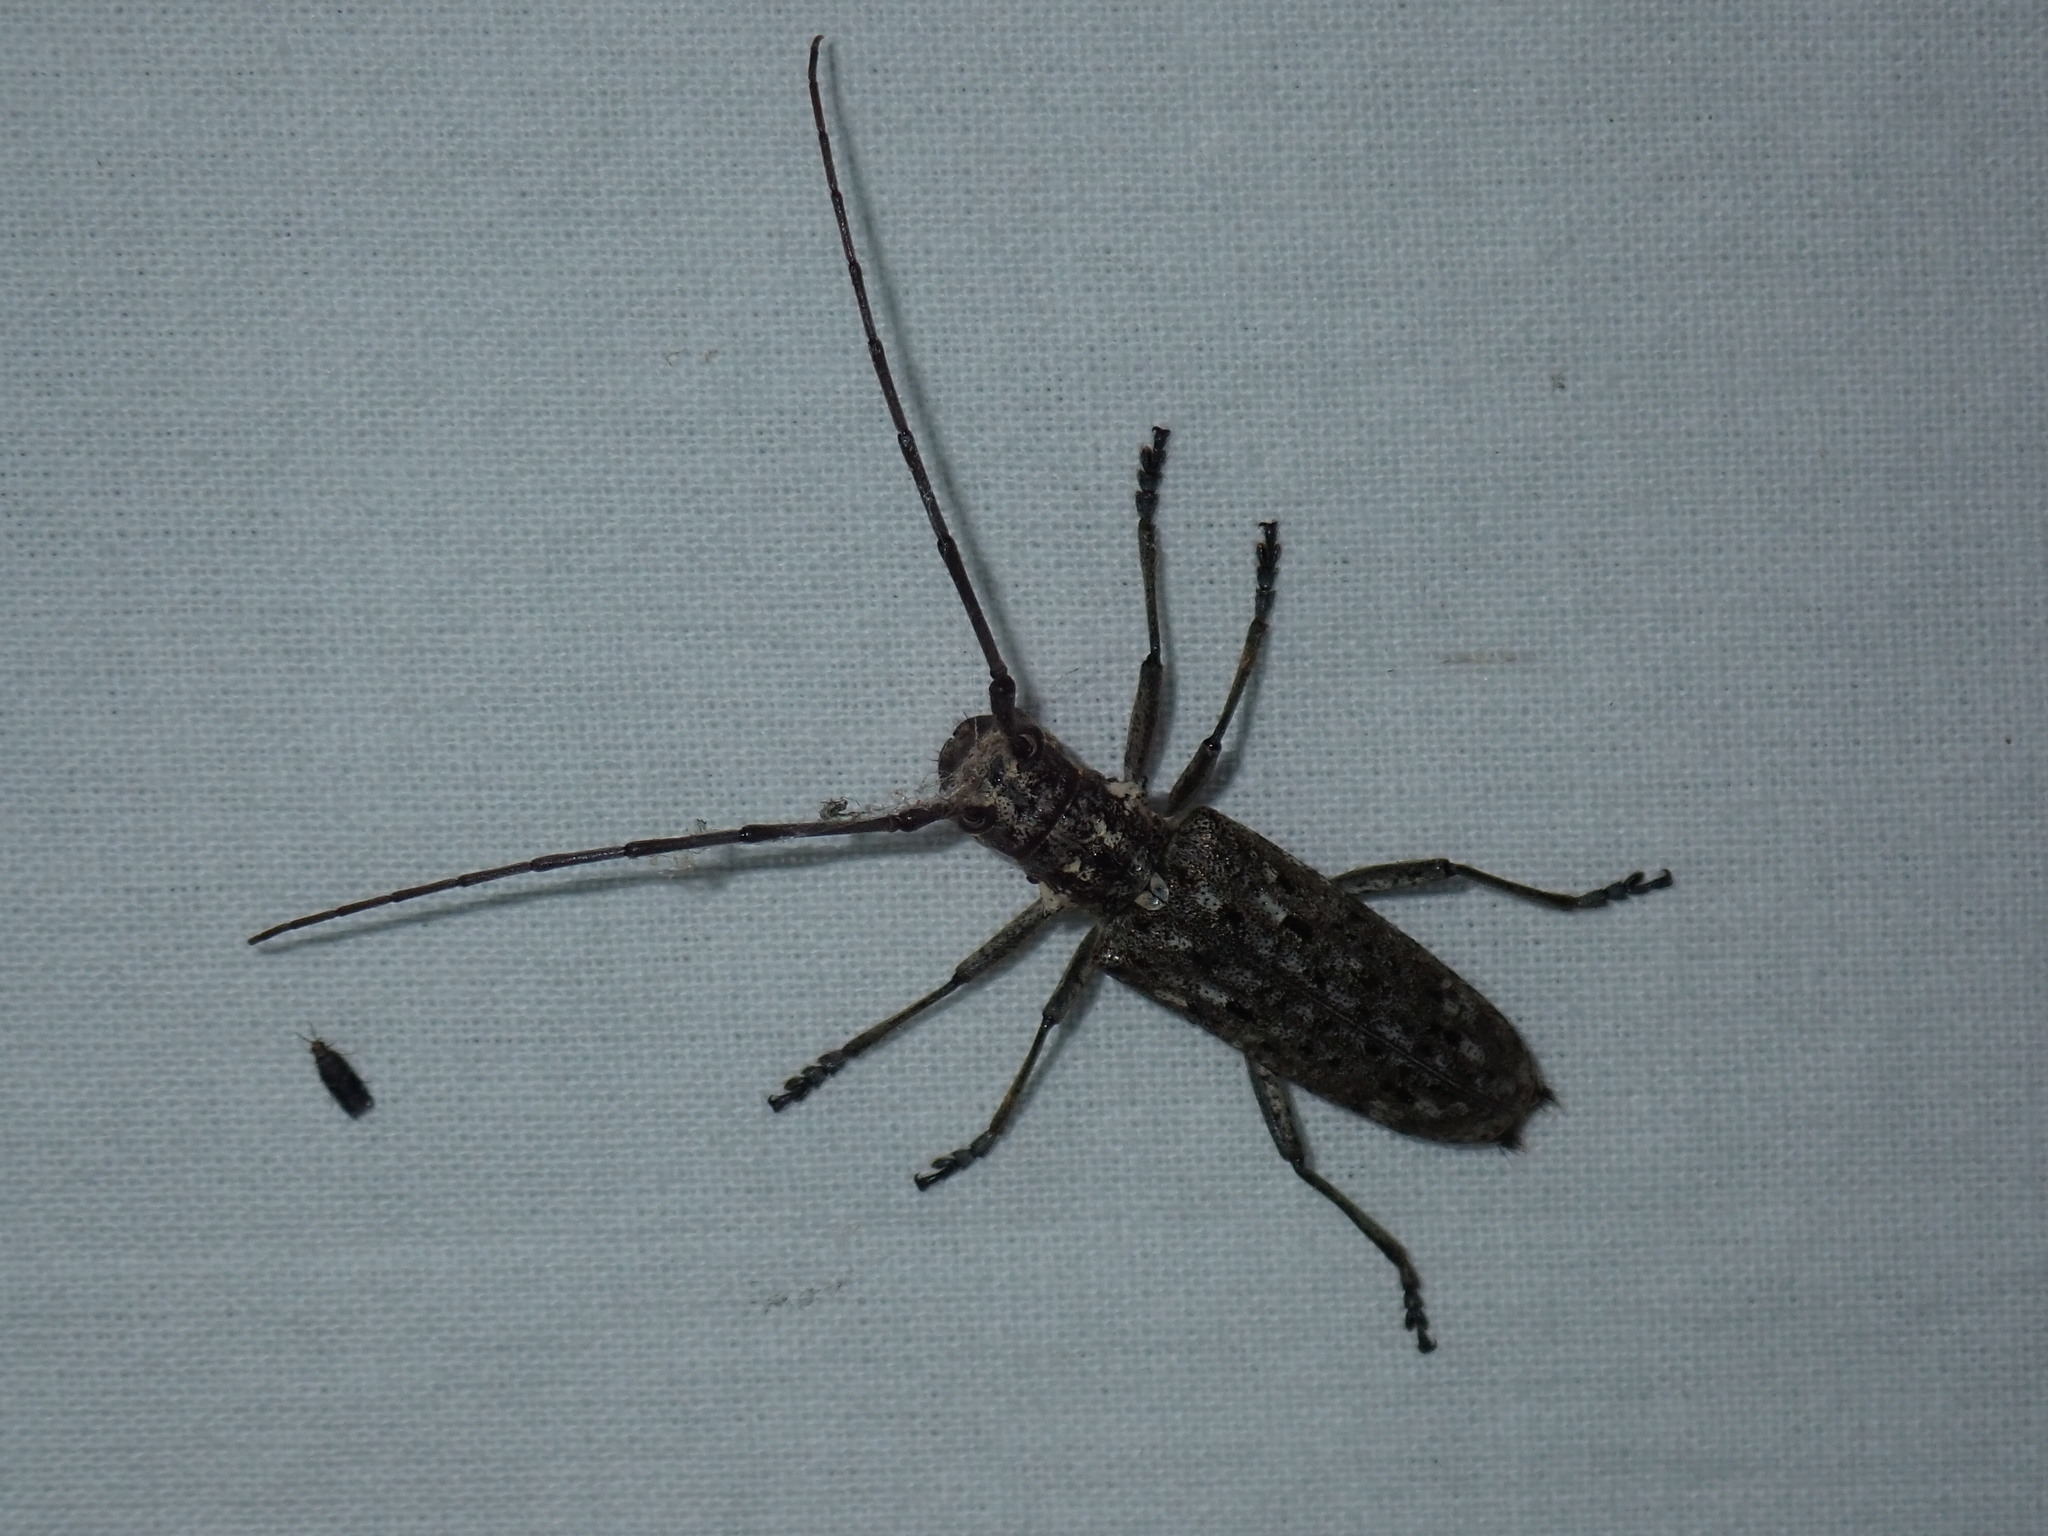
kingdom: Animalia
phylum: Arthropoda
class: Insecta
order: Coleoptera
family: Cerambycidae
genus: Monochamus
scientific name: Monochamus notatus
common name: Northeastern pine sawyer beetle
